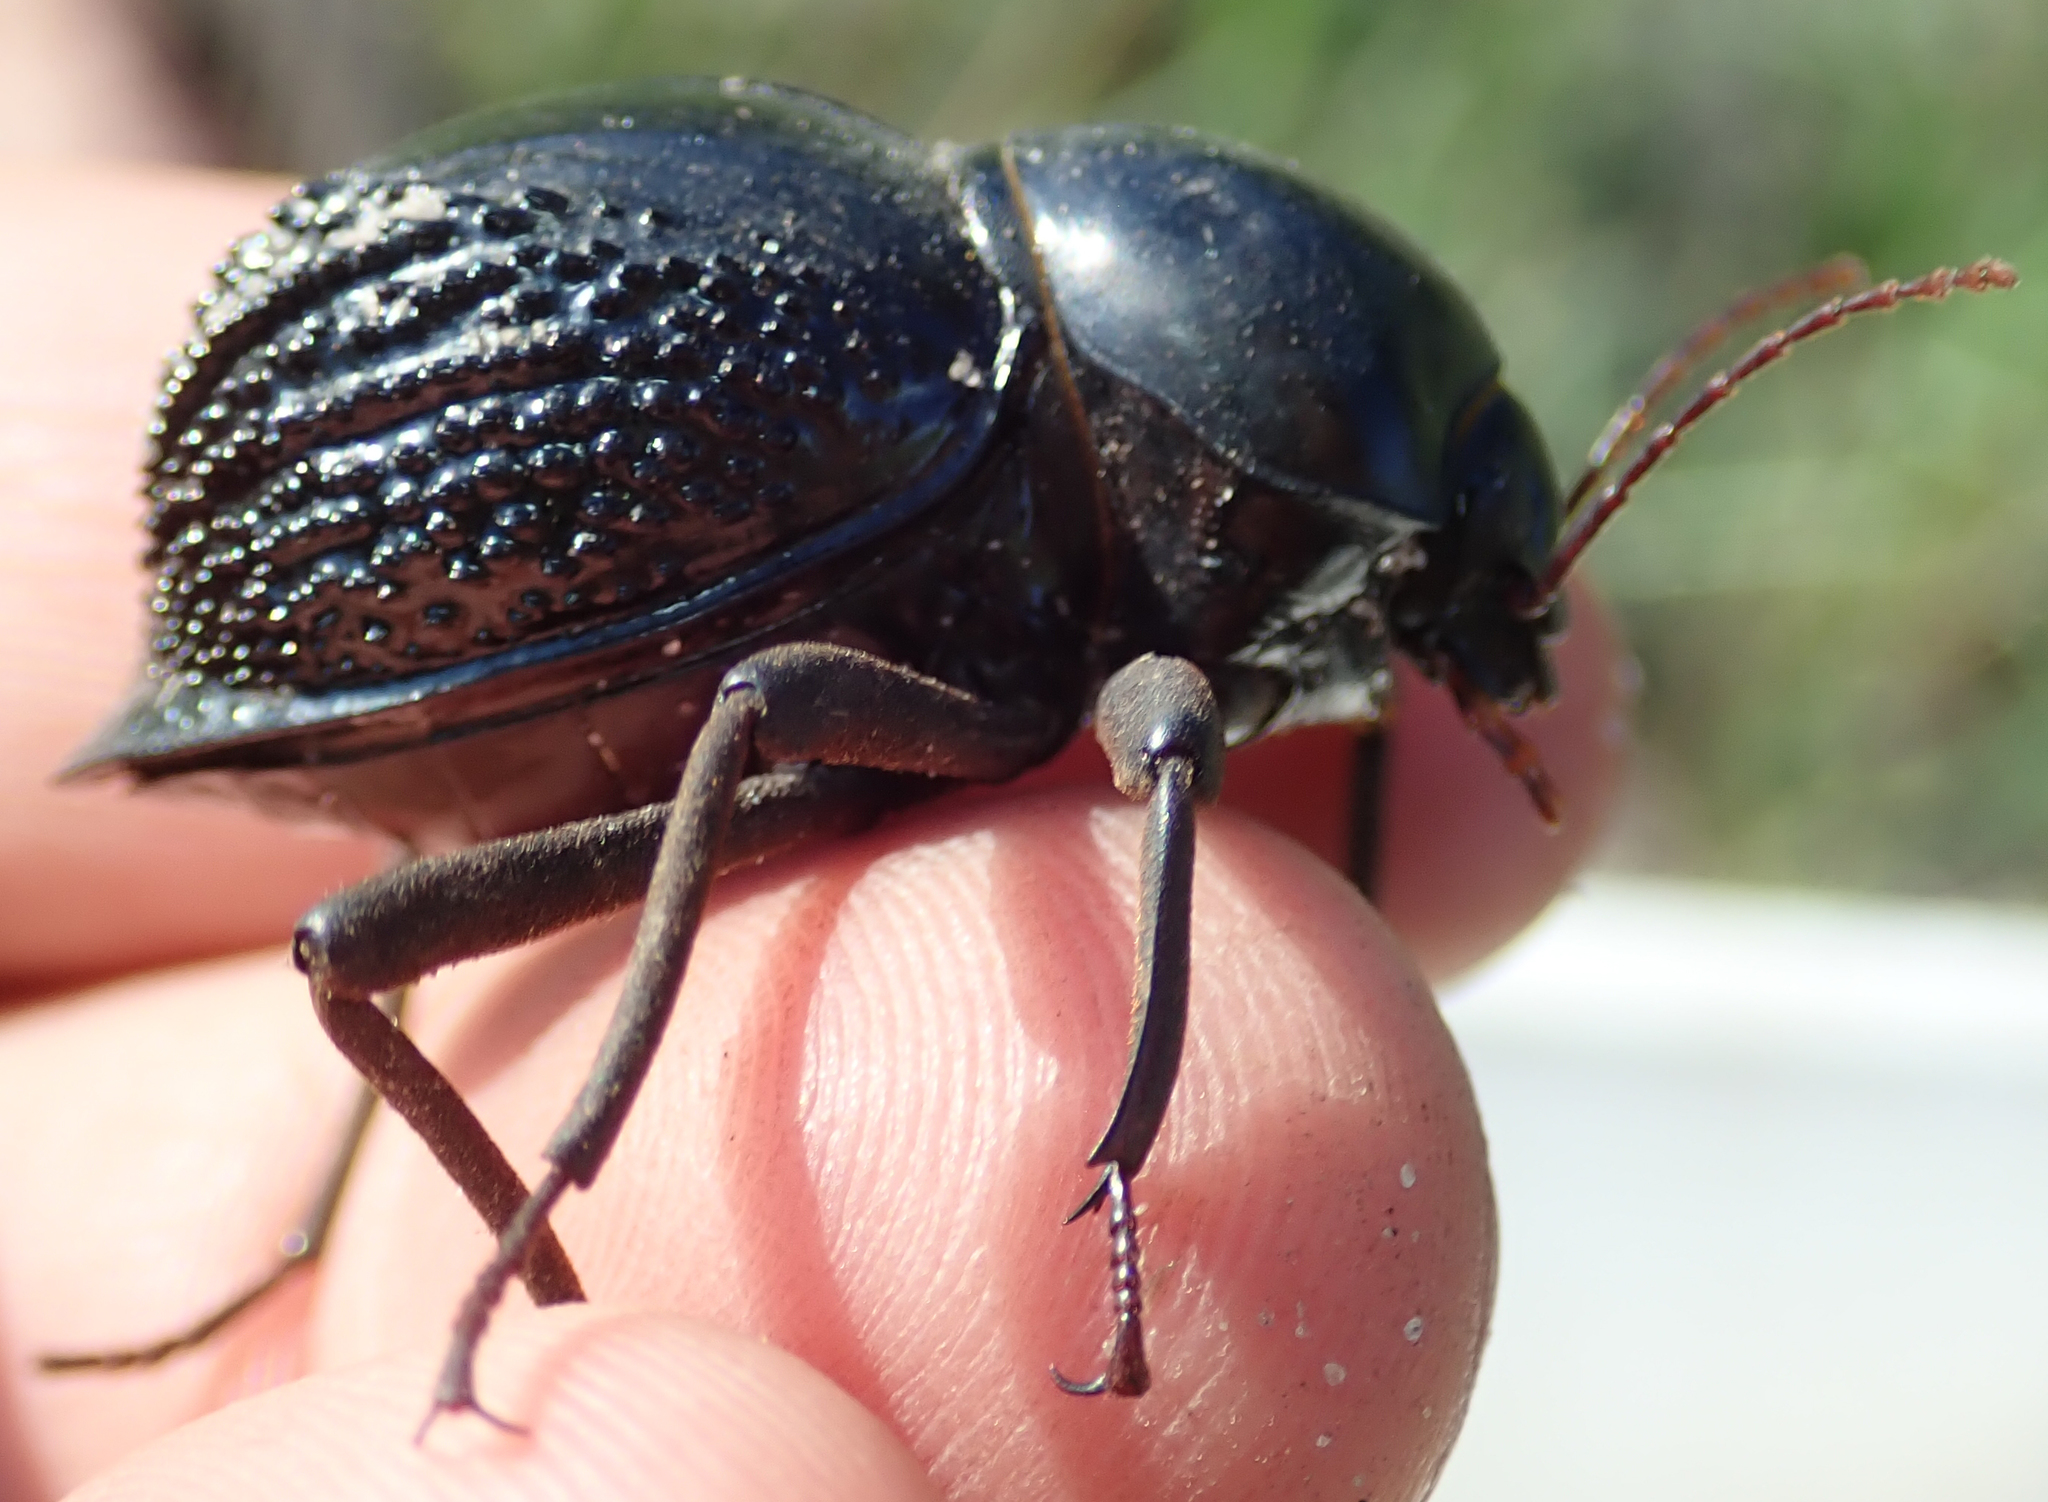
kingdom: Animalia
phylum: Arthropoda
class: Insecta
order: Coleoptera
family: Tenebrionidae
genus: Psammodes
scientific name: Psammodes vialis
